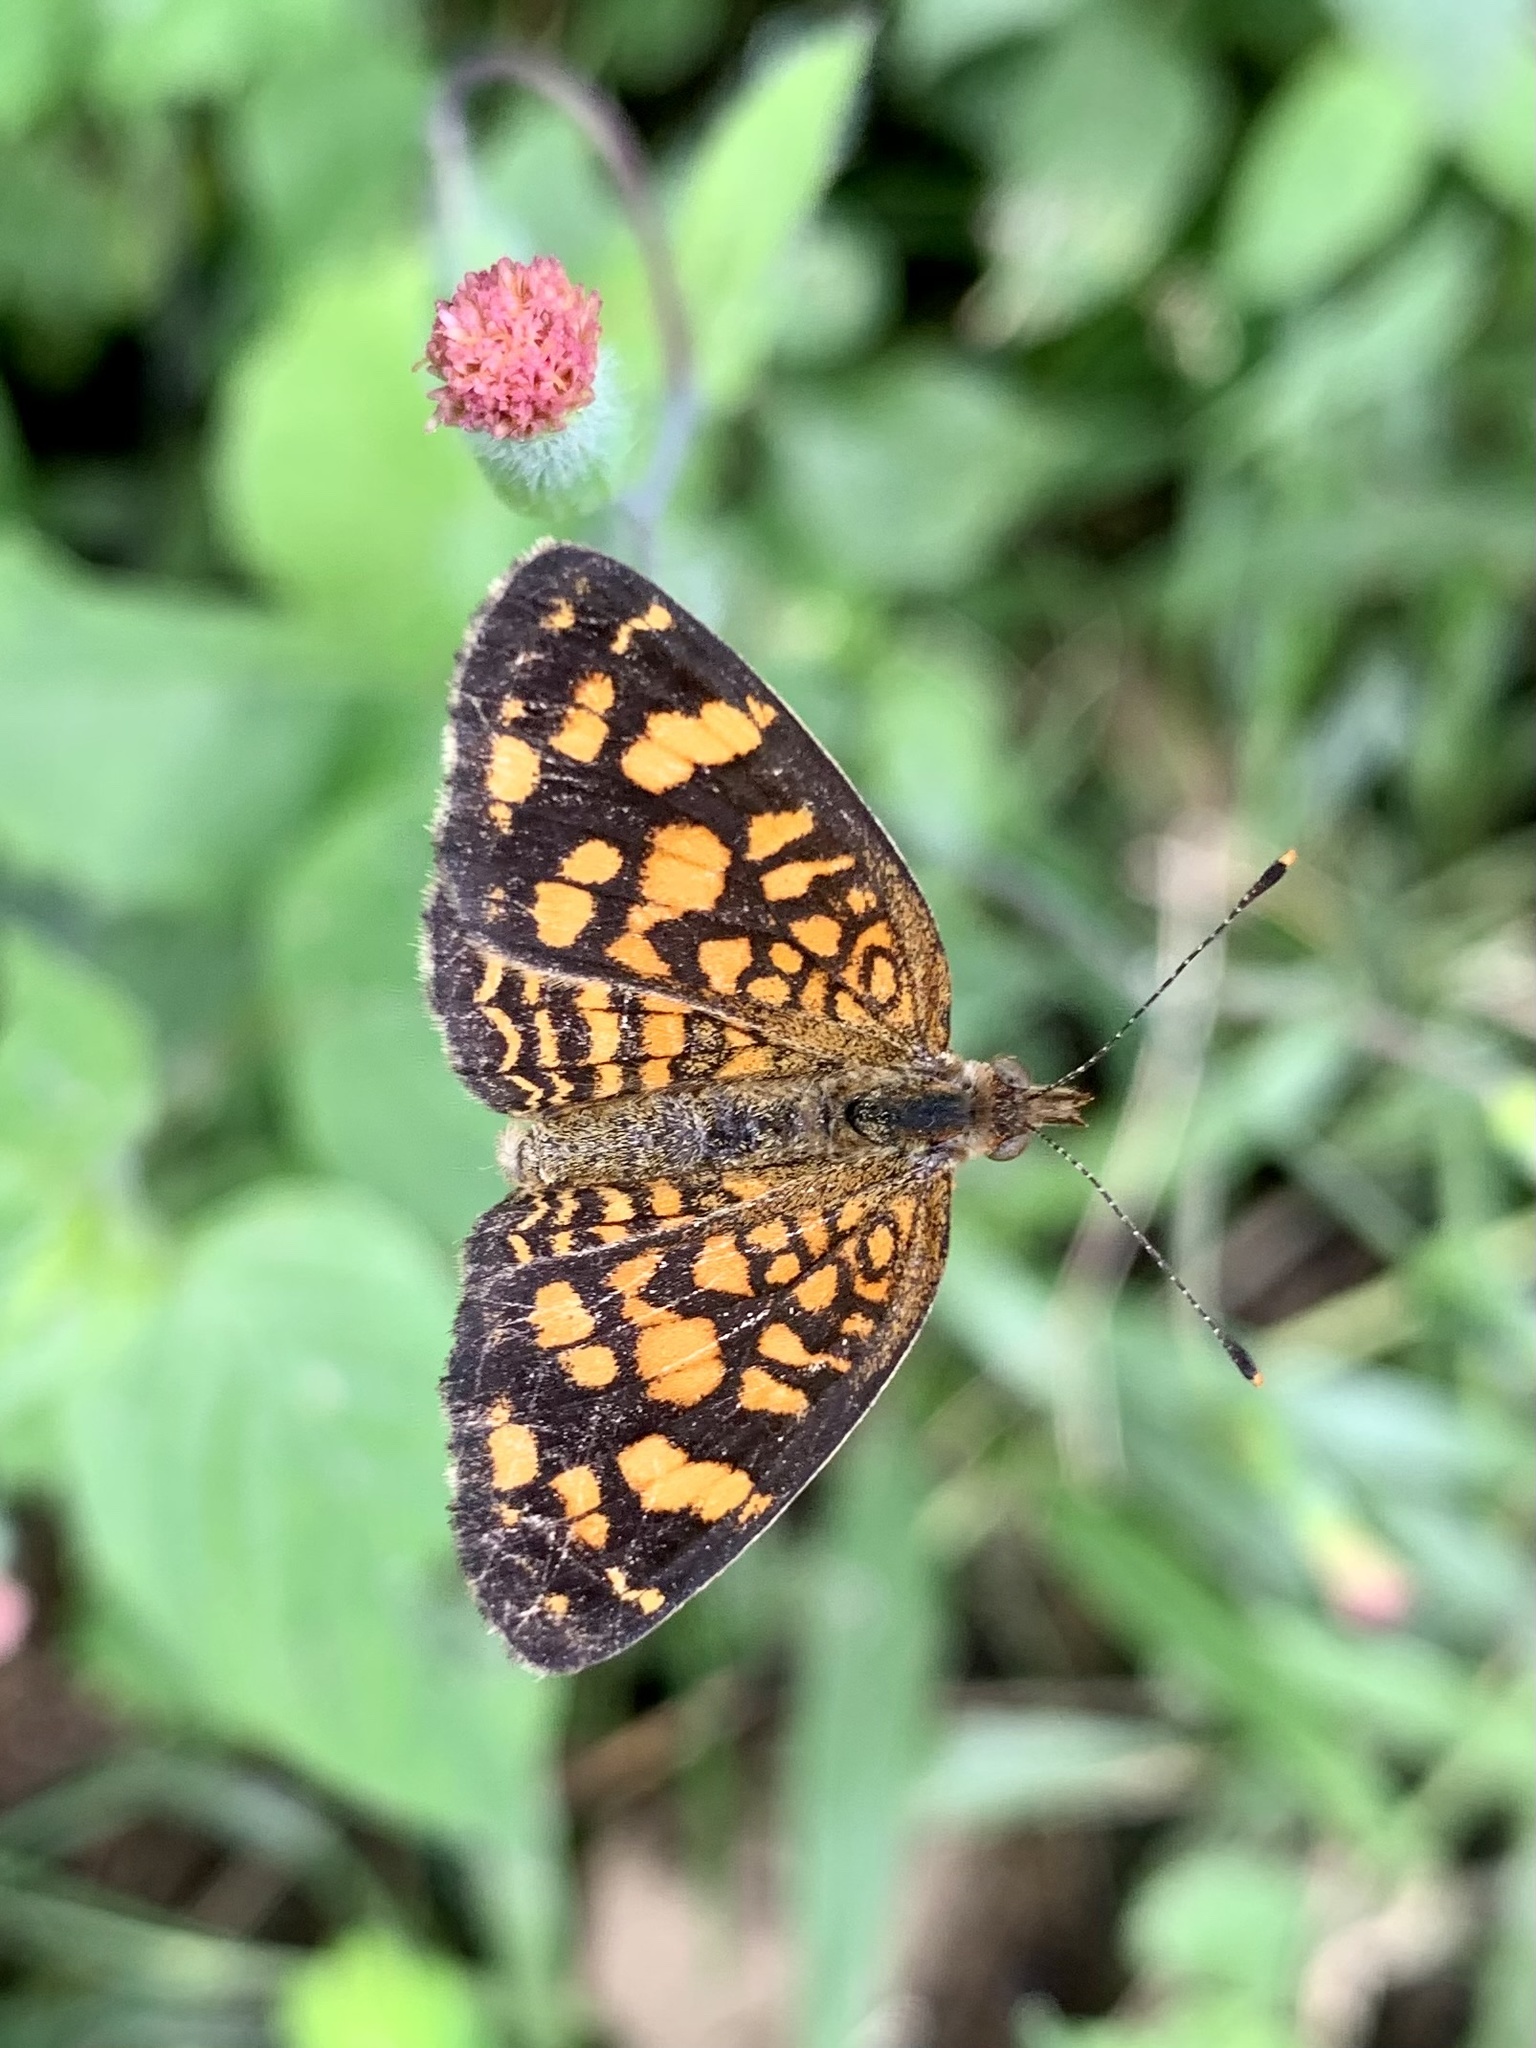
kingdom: Animalia
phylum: Arthropoda
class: Insecta
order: Lepidoptera
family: Nymphalidae
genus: Anthanassa
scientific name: Anthanassa hermas
